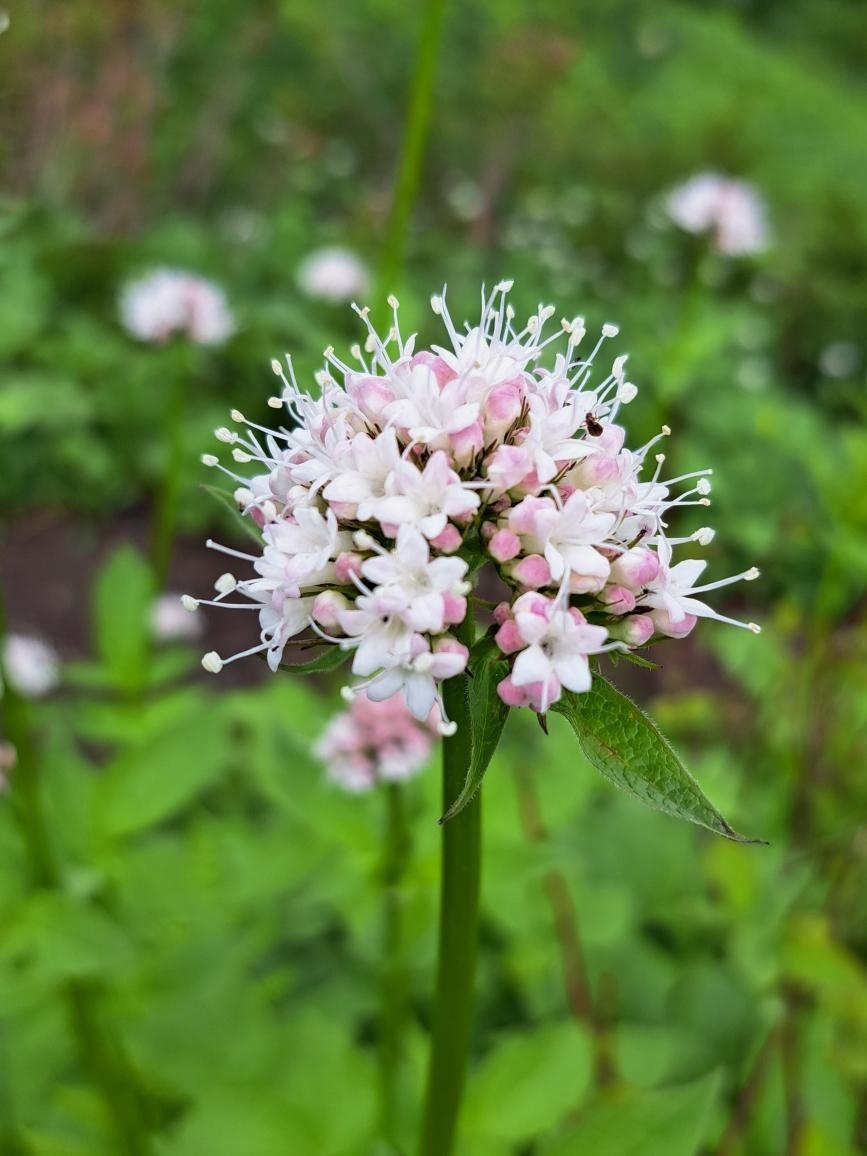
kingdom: Plantae
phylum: Tracheophyta
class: Magnoliopsida
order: Dipsacales
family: Caprifoliaceae
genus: Valeriana
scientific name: Valeriana sitchensis
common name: Pacific valerian
